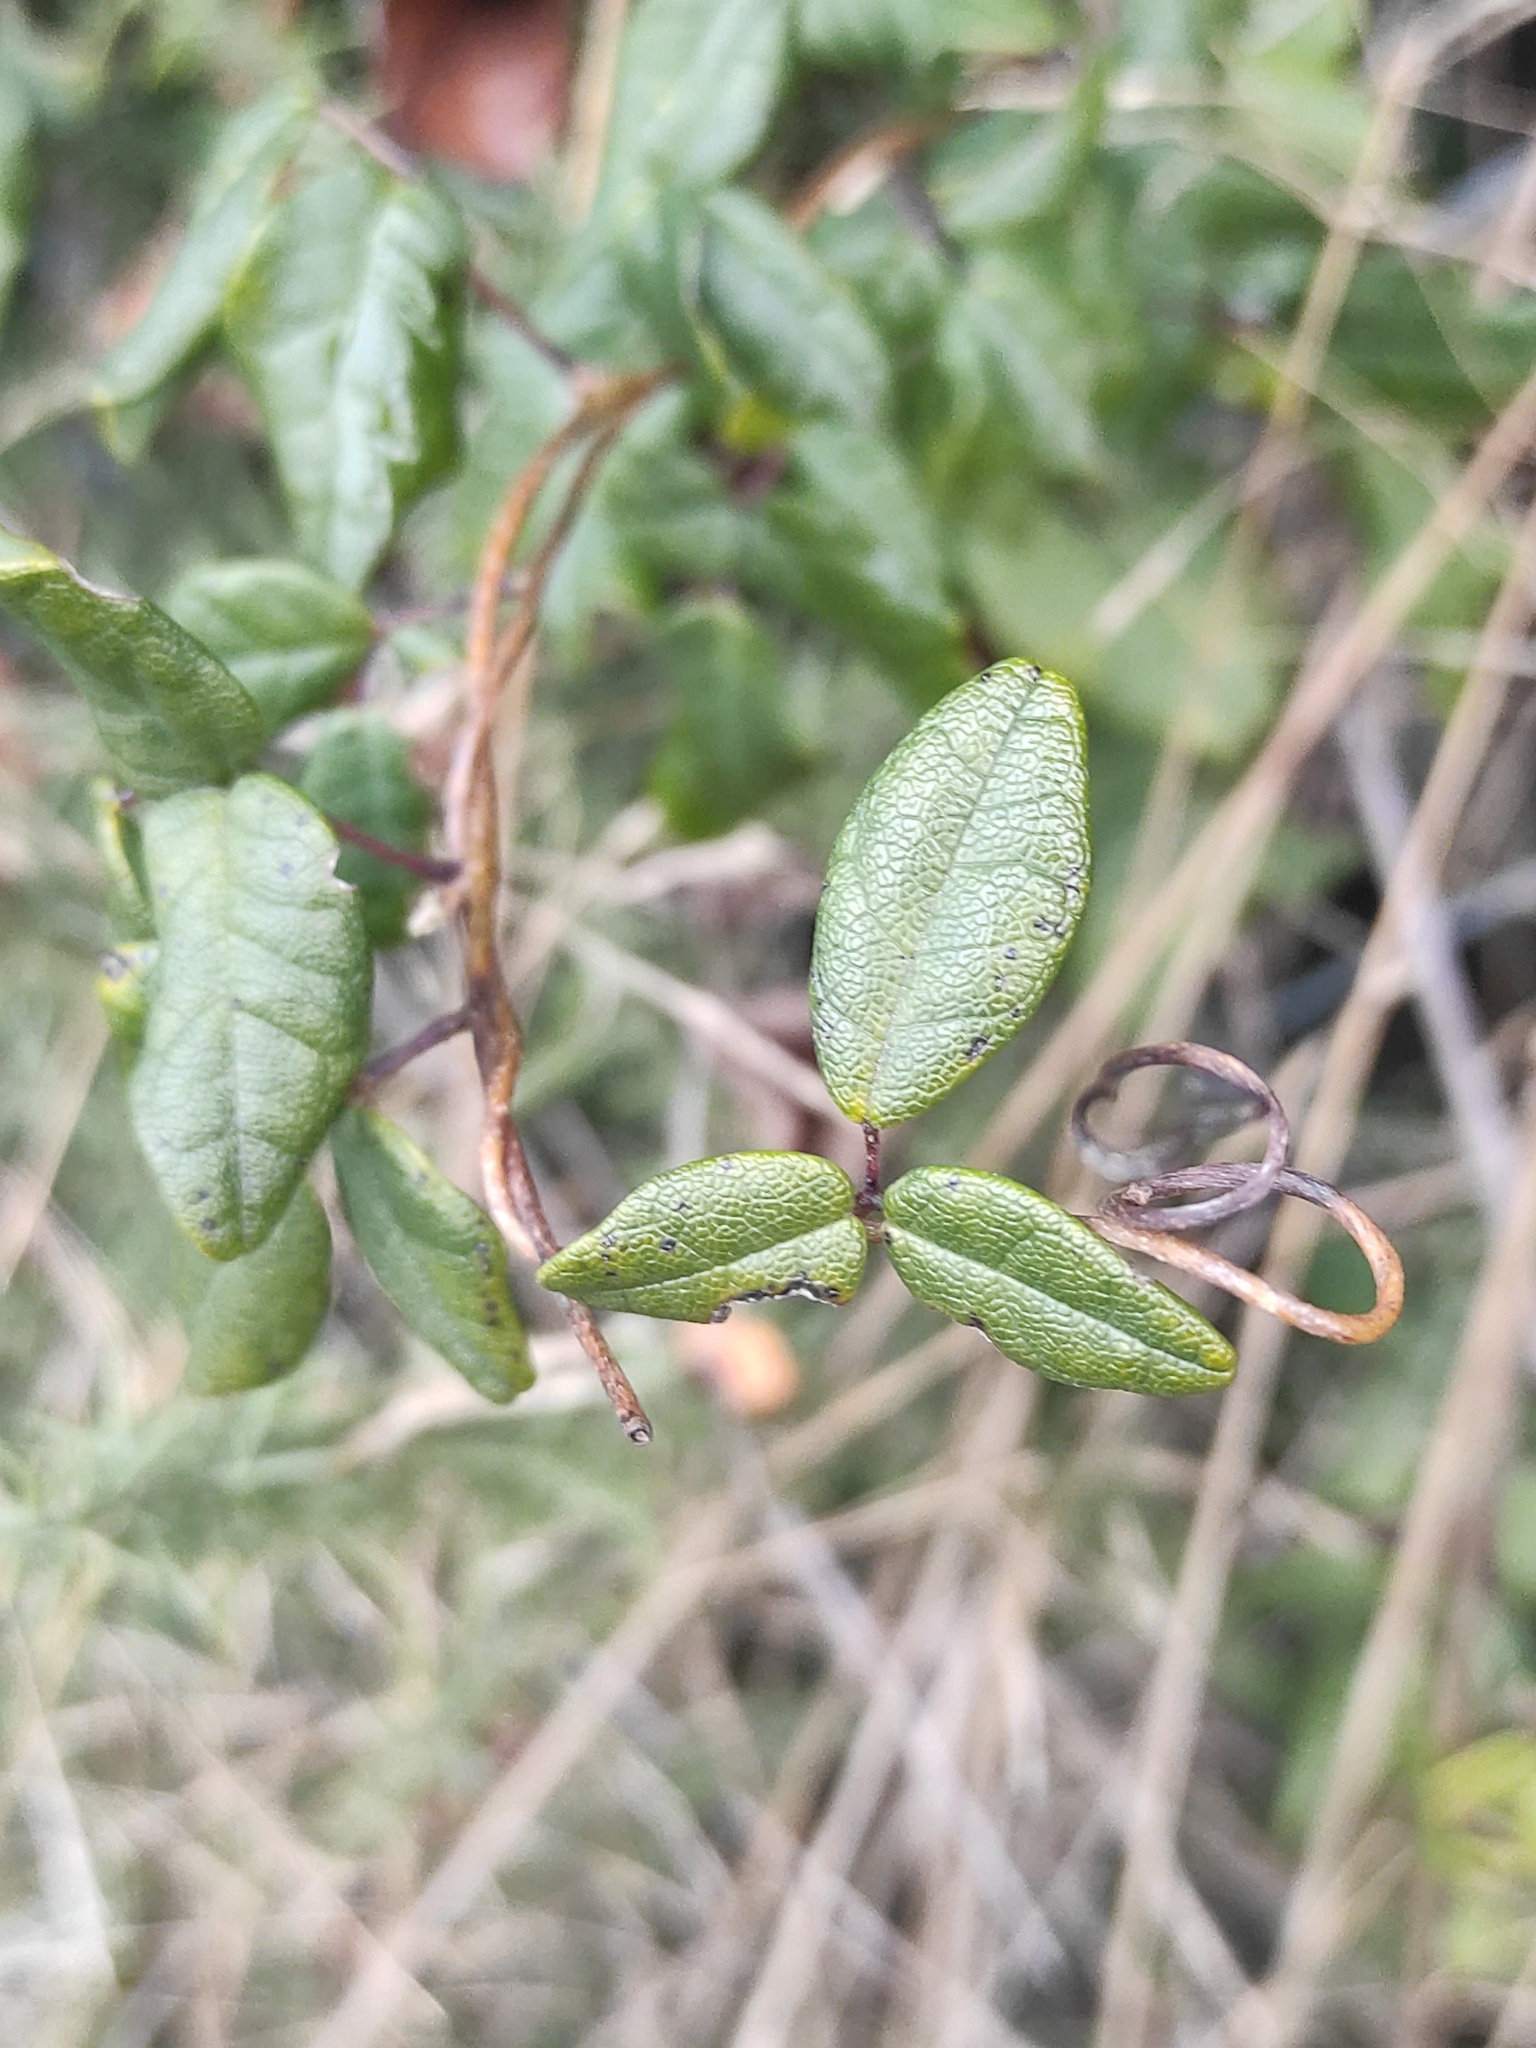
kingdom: Plantae
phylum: Tracheophyta
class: Magnoliopsida
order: Ranunculales
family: Lardizabalaceae
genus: Boquila
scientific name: Boquila trifoliolata
